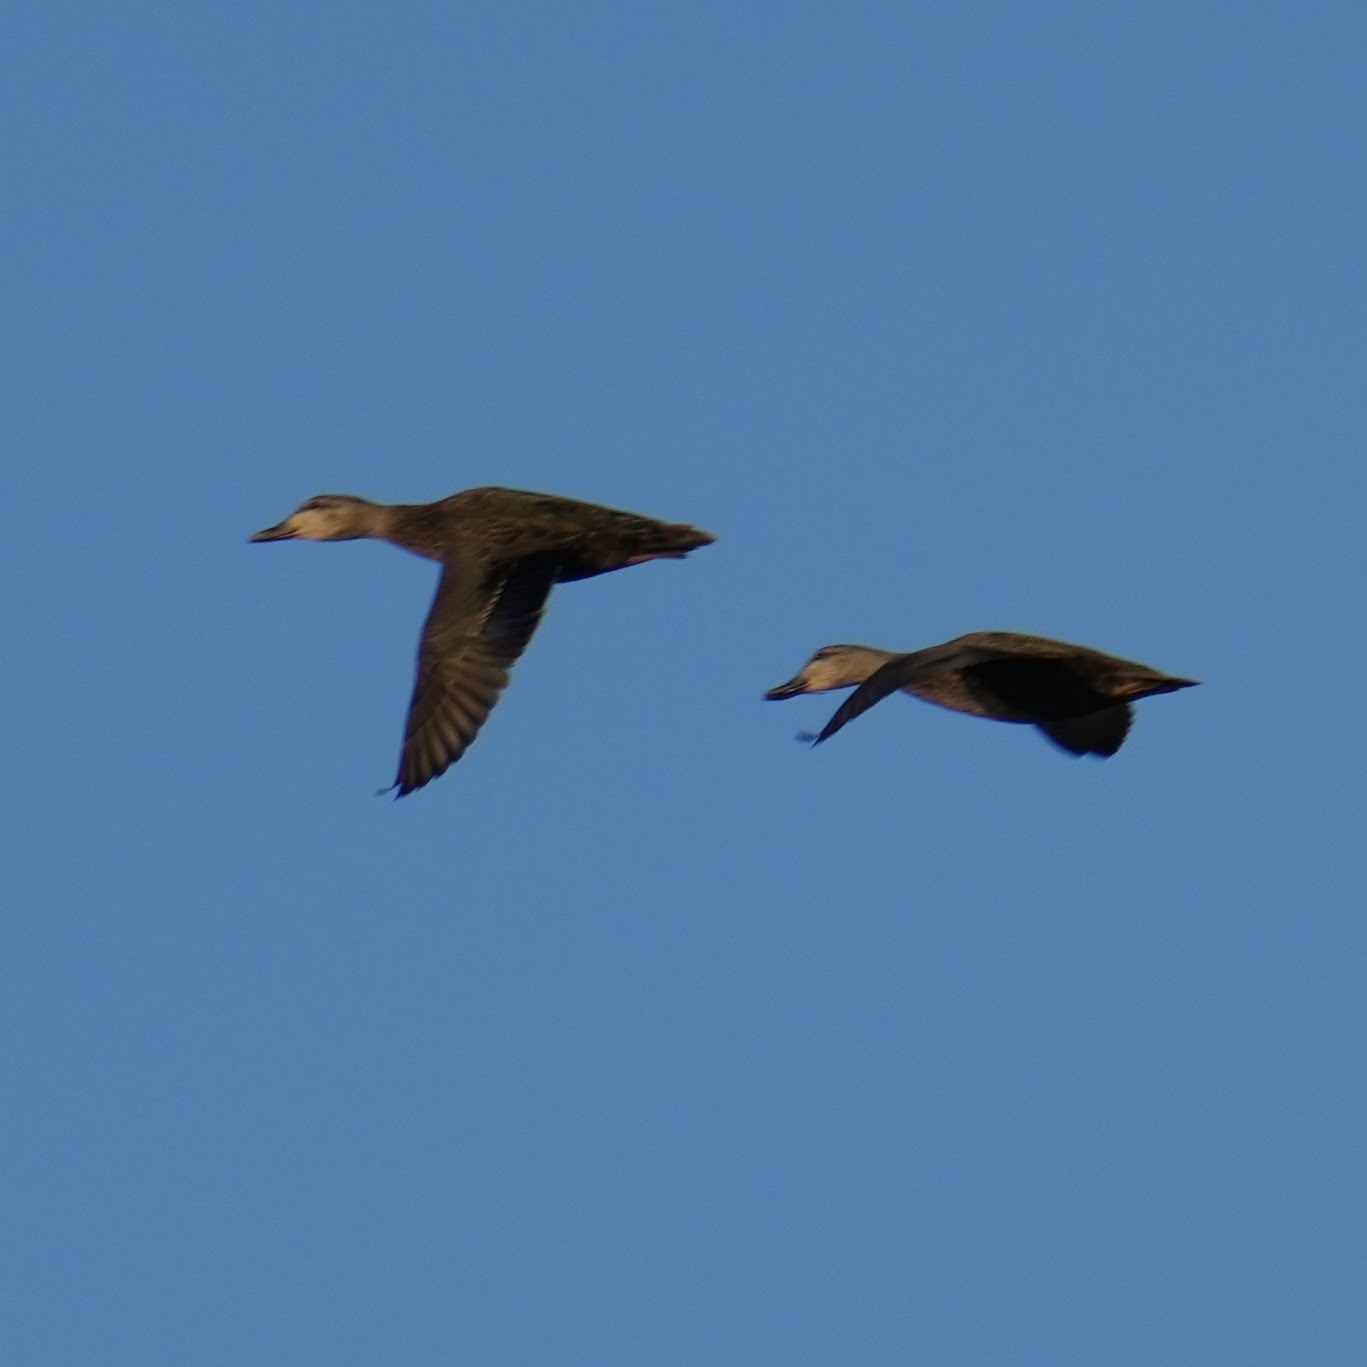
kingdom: Animalia
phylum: Chordata
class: Aves
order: Anseriformes
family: Anatidae
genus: Anas
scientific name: Anas rubripes
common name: American black duck
